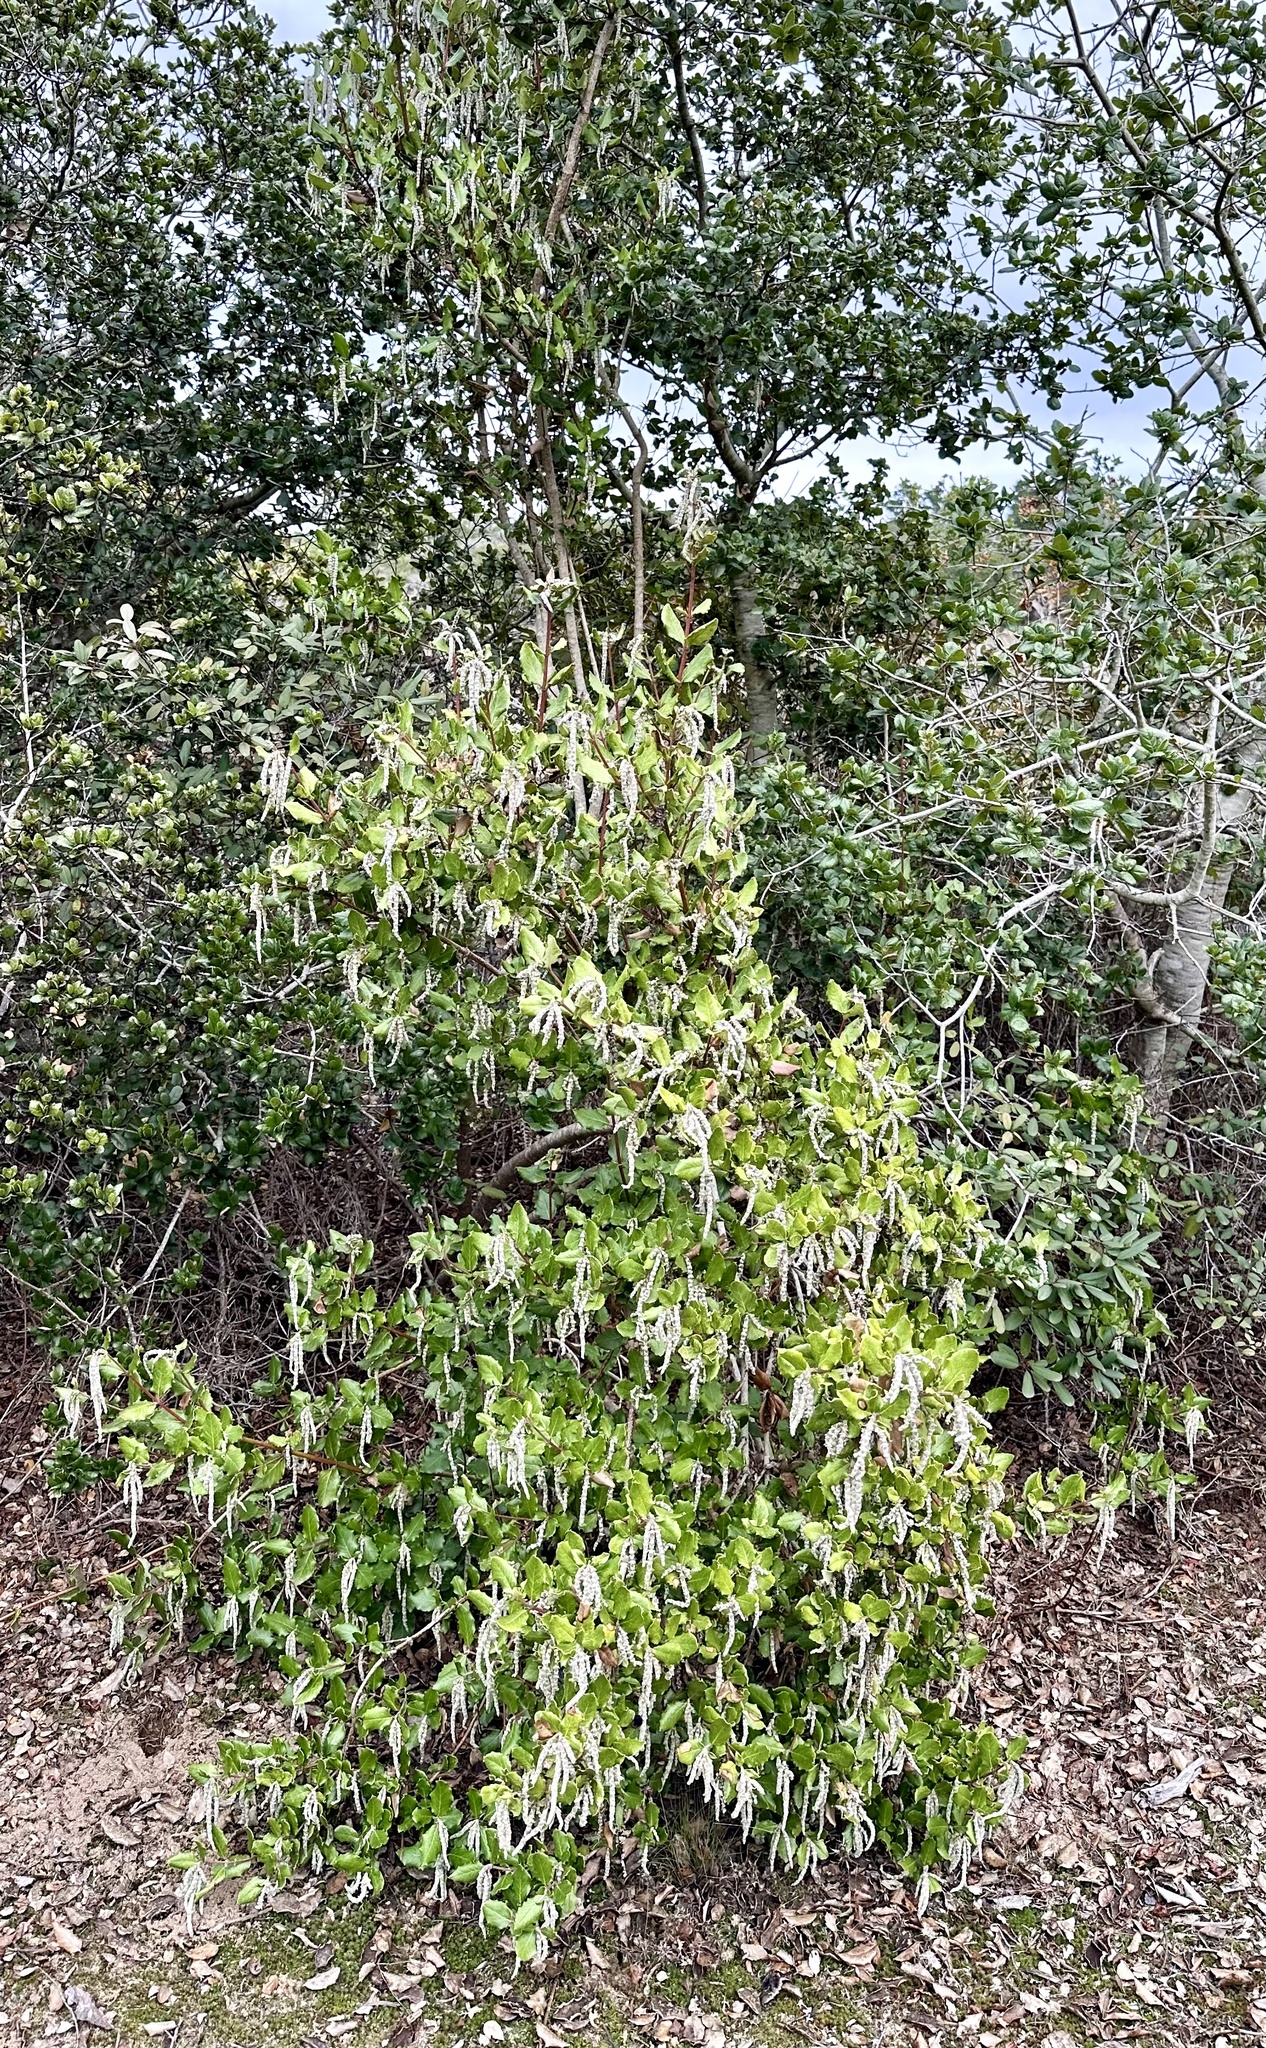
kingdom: Plantae
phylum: Tracheophyta
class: Magnoliopsida
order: Garryales
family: Garryaceae
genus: Garrya
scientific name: Garrya elliptica
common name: Silk-tassel
